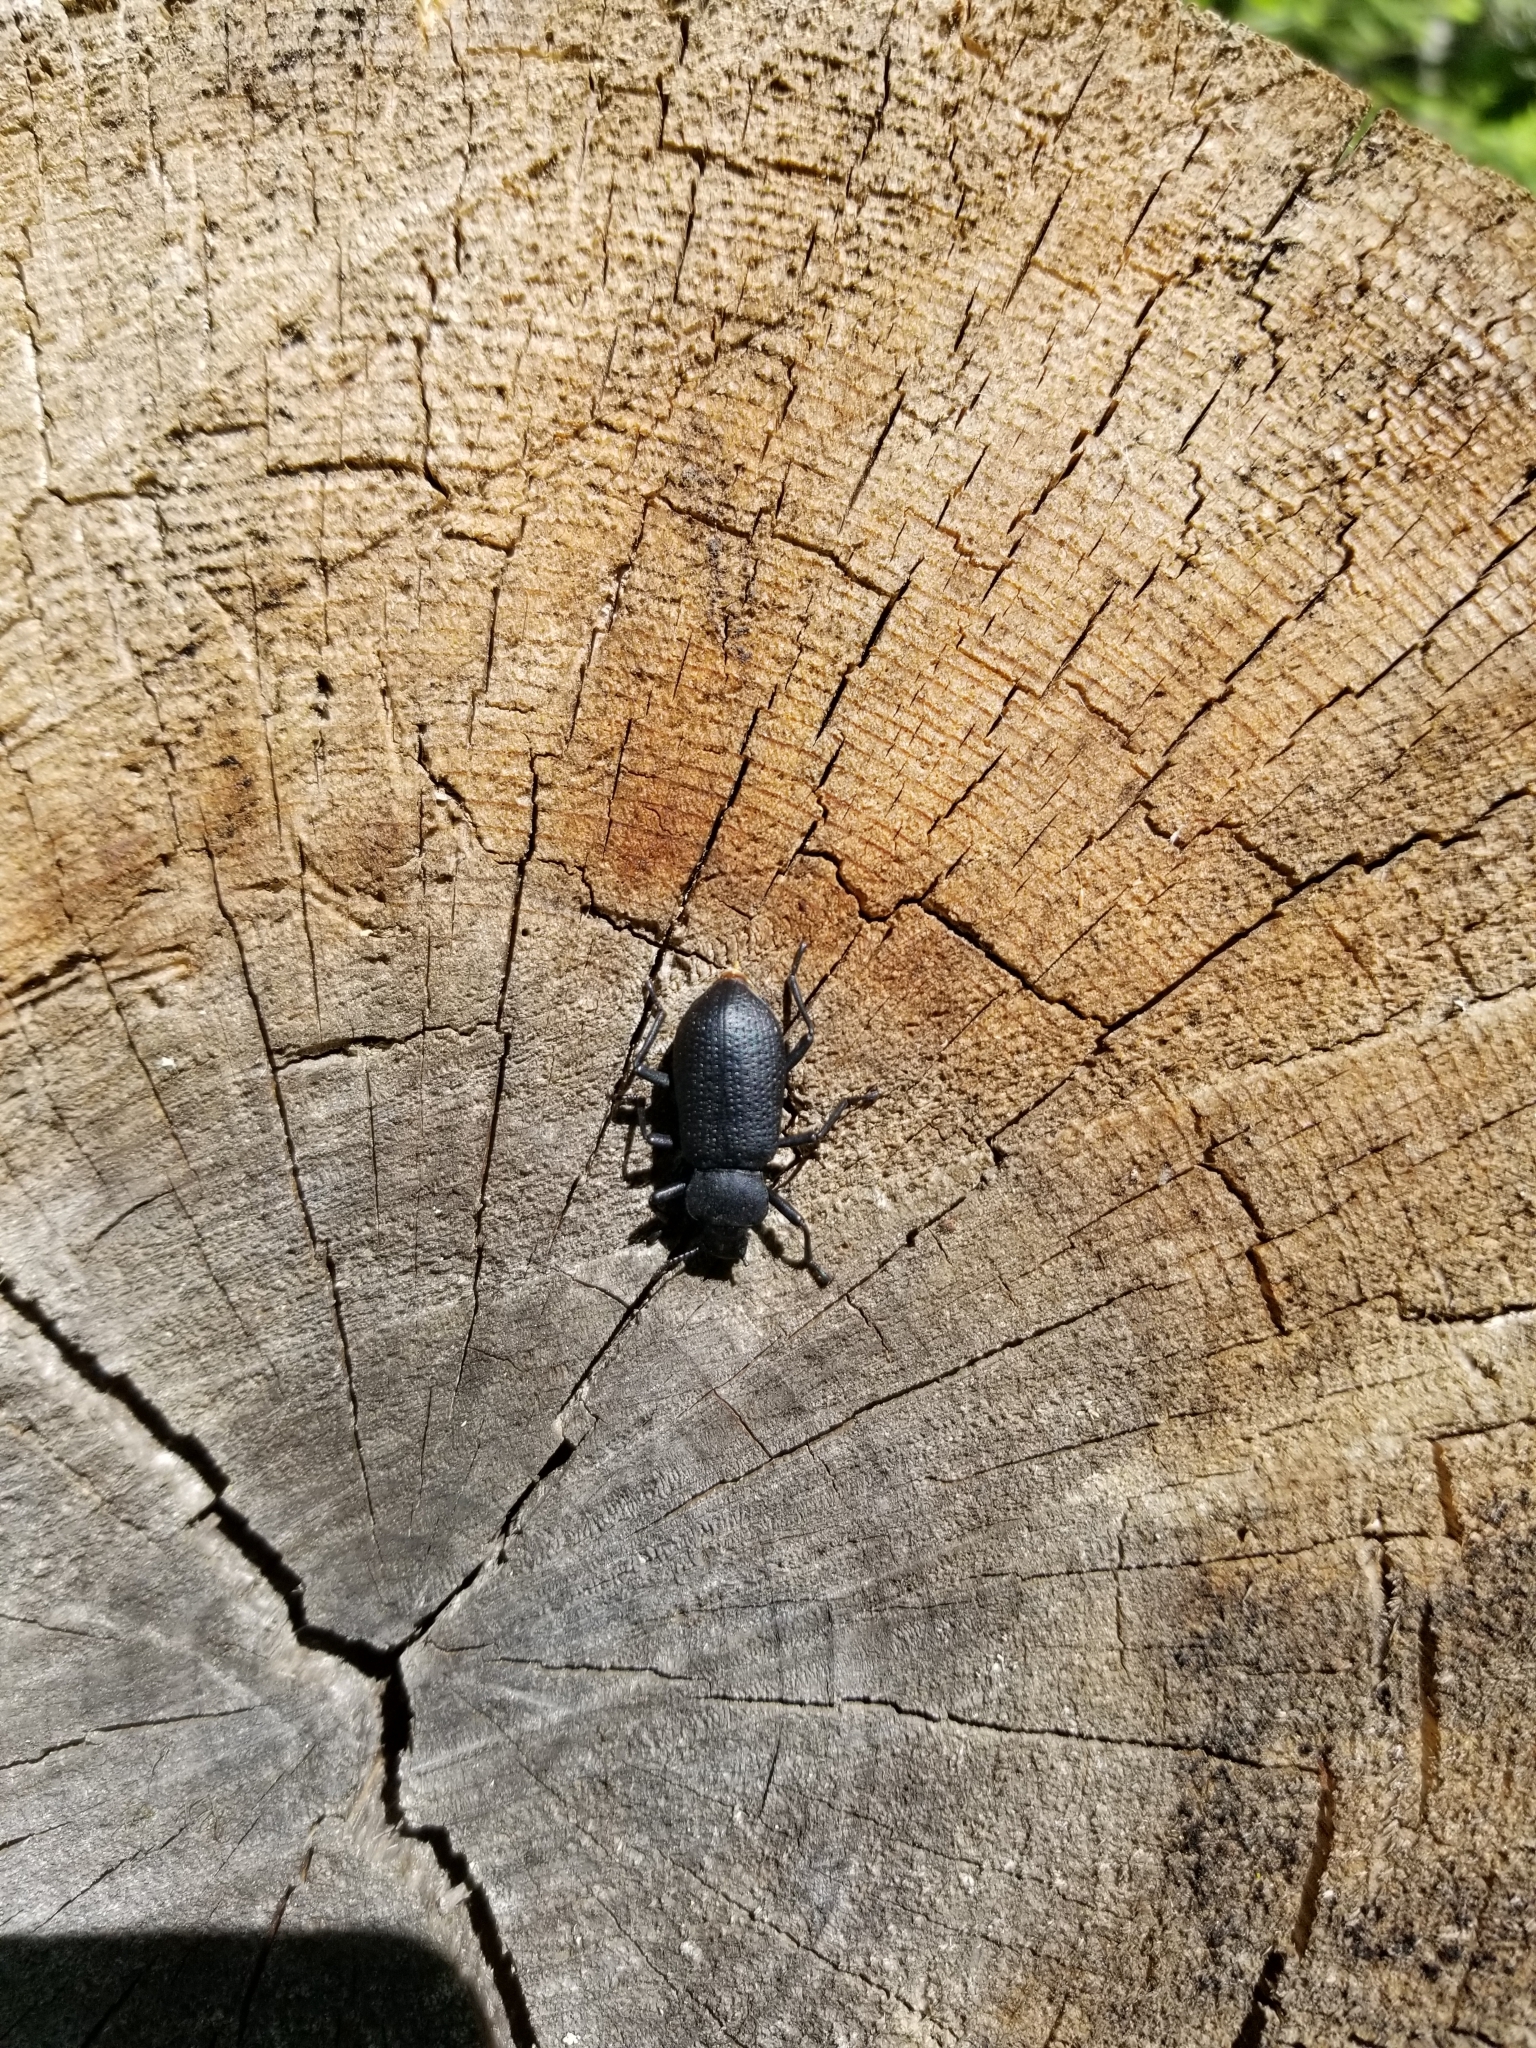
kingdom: Animalia
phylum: Arthropoda
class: Insecta
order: Coleoptera
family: Tenebrionidae
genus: Iphthiminus
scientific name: Iphthiminus serratus
